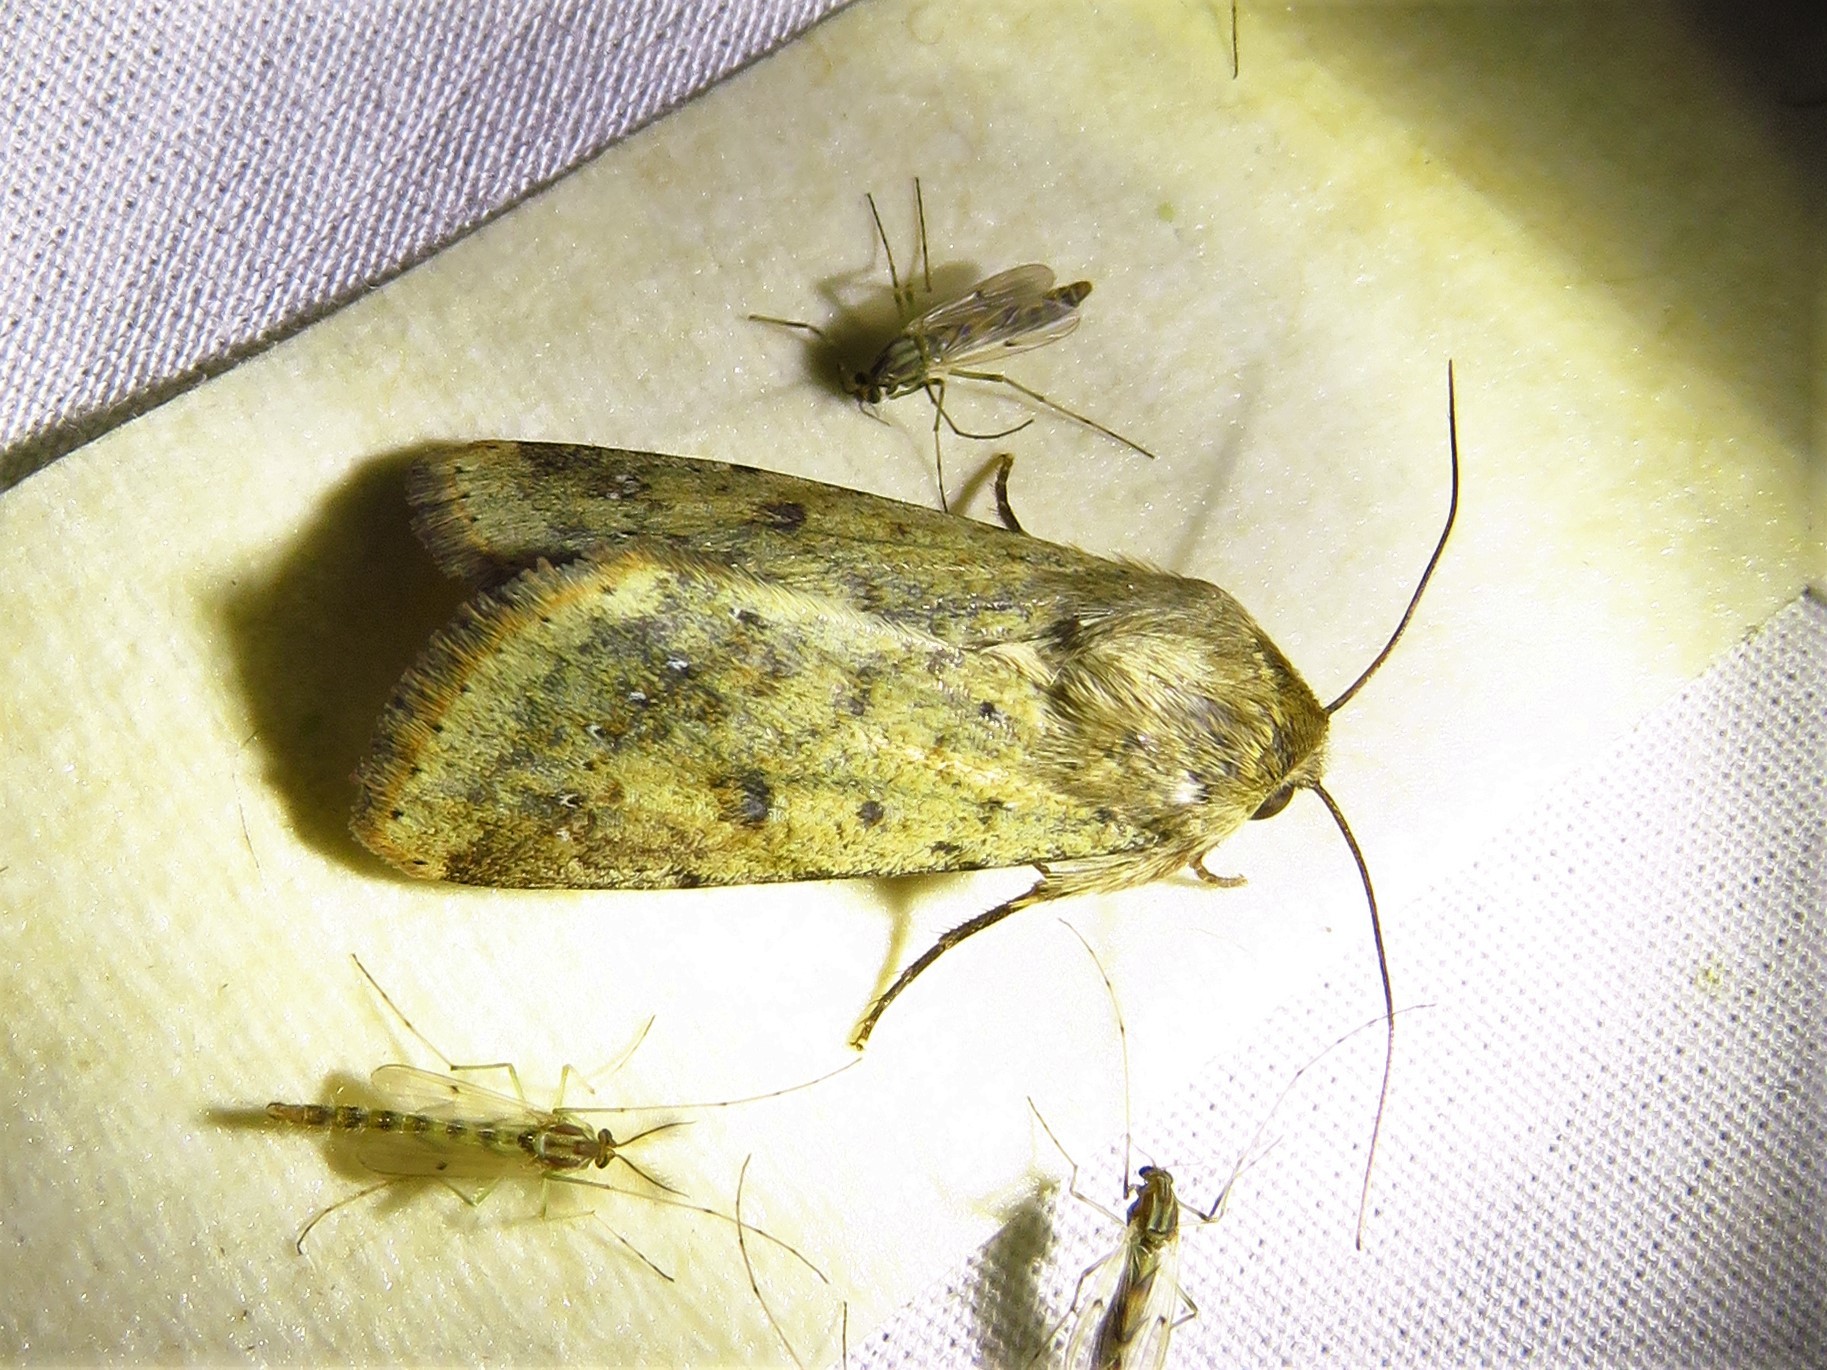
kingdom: Animalia
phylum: Arthropoda
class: Insecta
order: Lepidoptera
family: Noctuidae
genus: Helicoverpa
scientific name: Helicoverpa zea
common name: Bollworm
